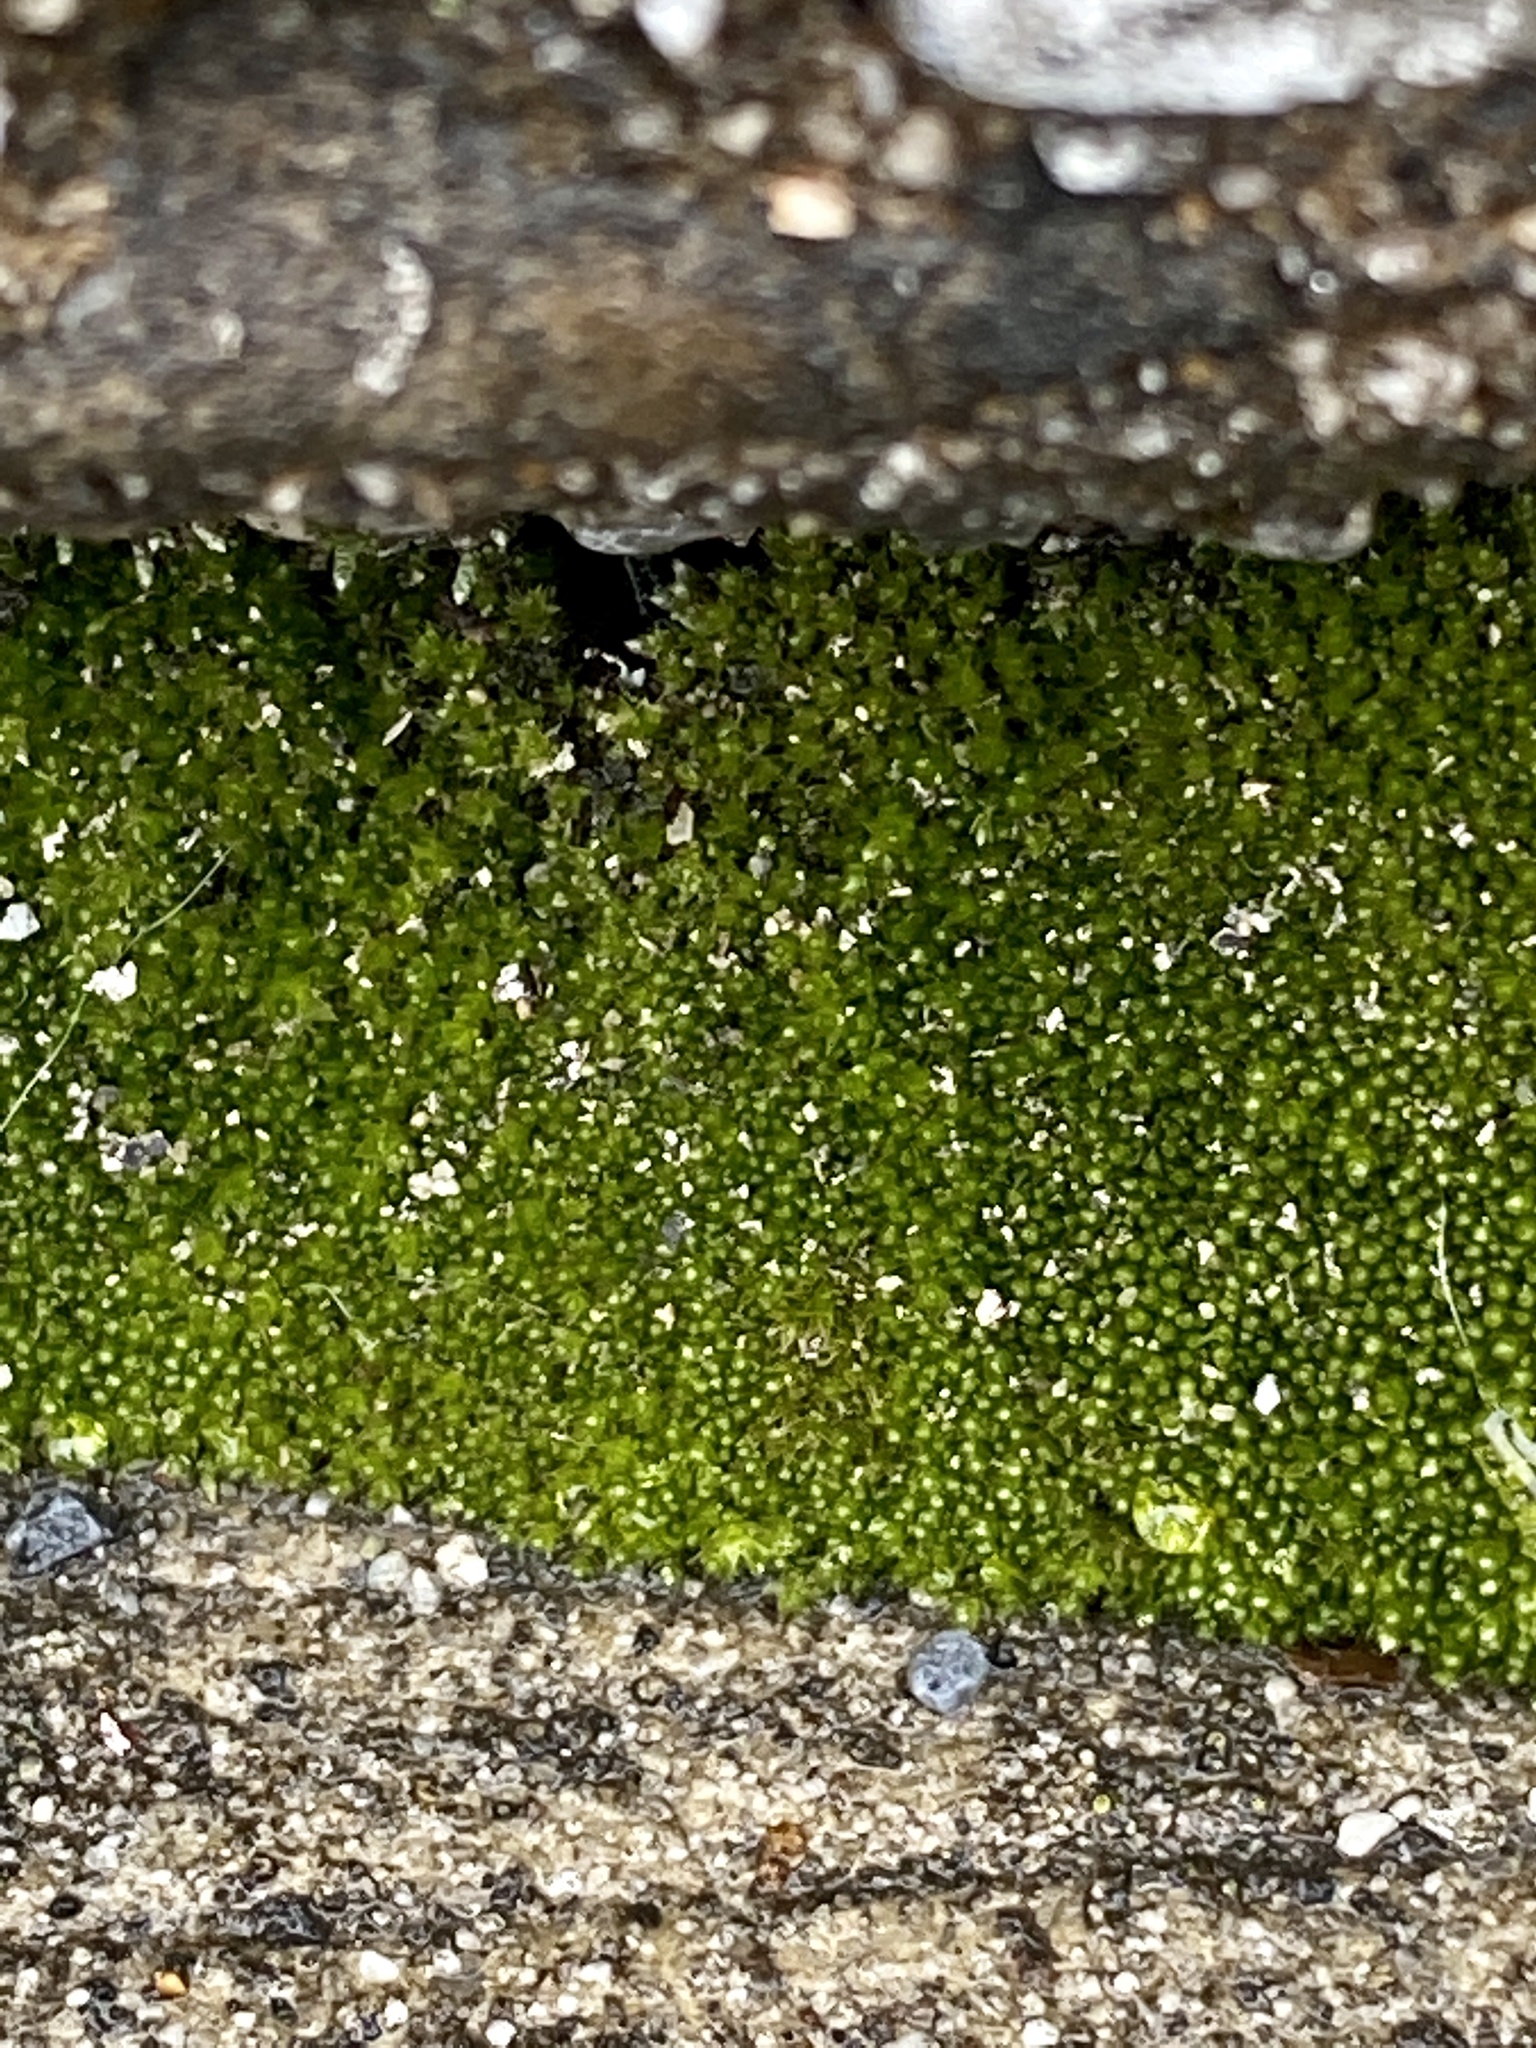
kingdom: Plantae
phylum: Bryophyta
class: Bryopsida
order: Bryales
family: Bryaceae
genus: Bryum
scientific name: Bryum argenteum
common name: Silver-moss
